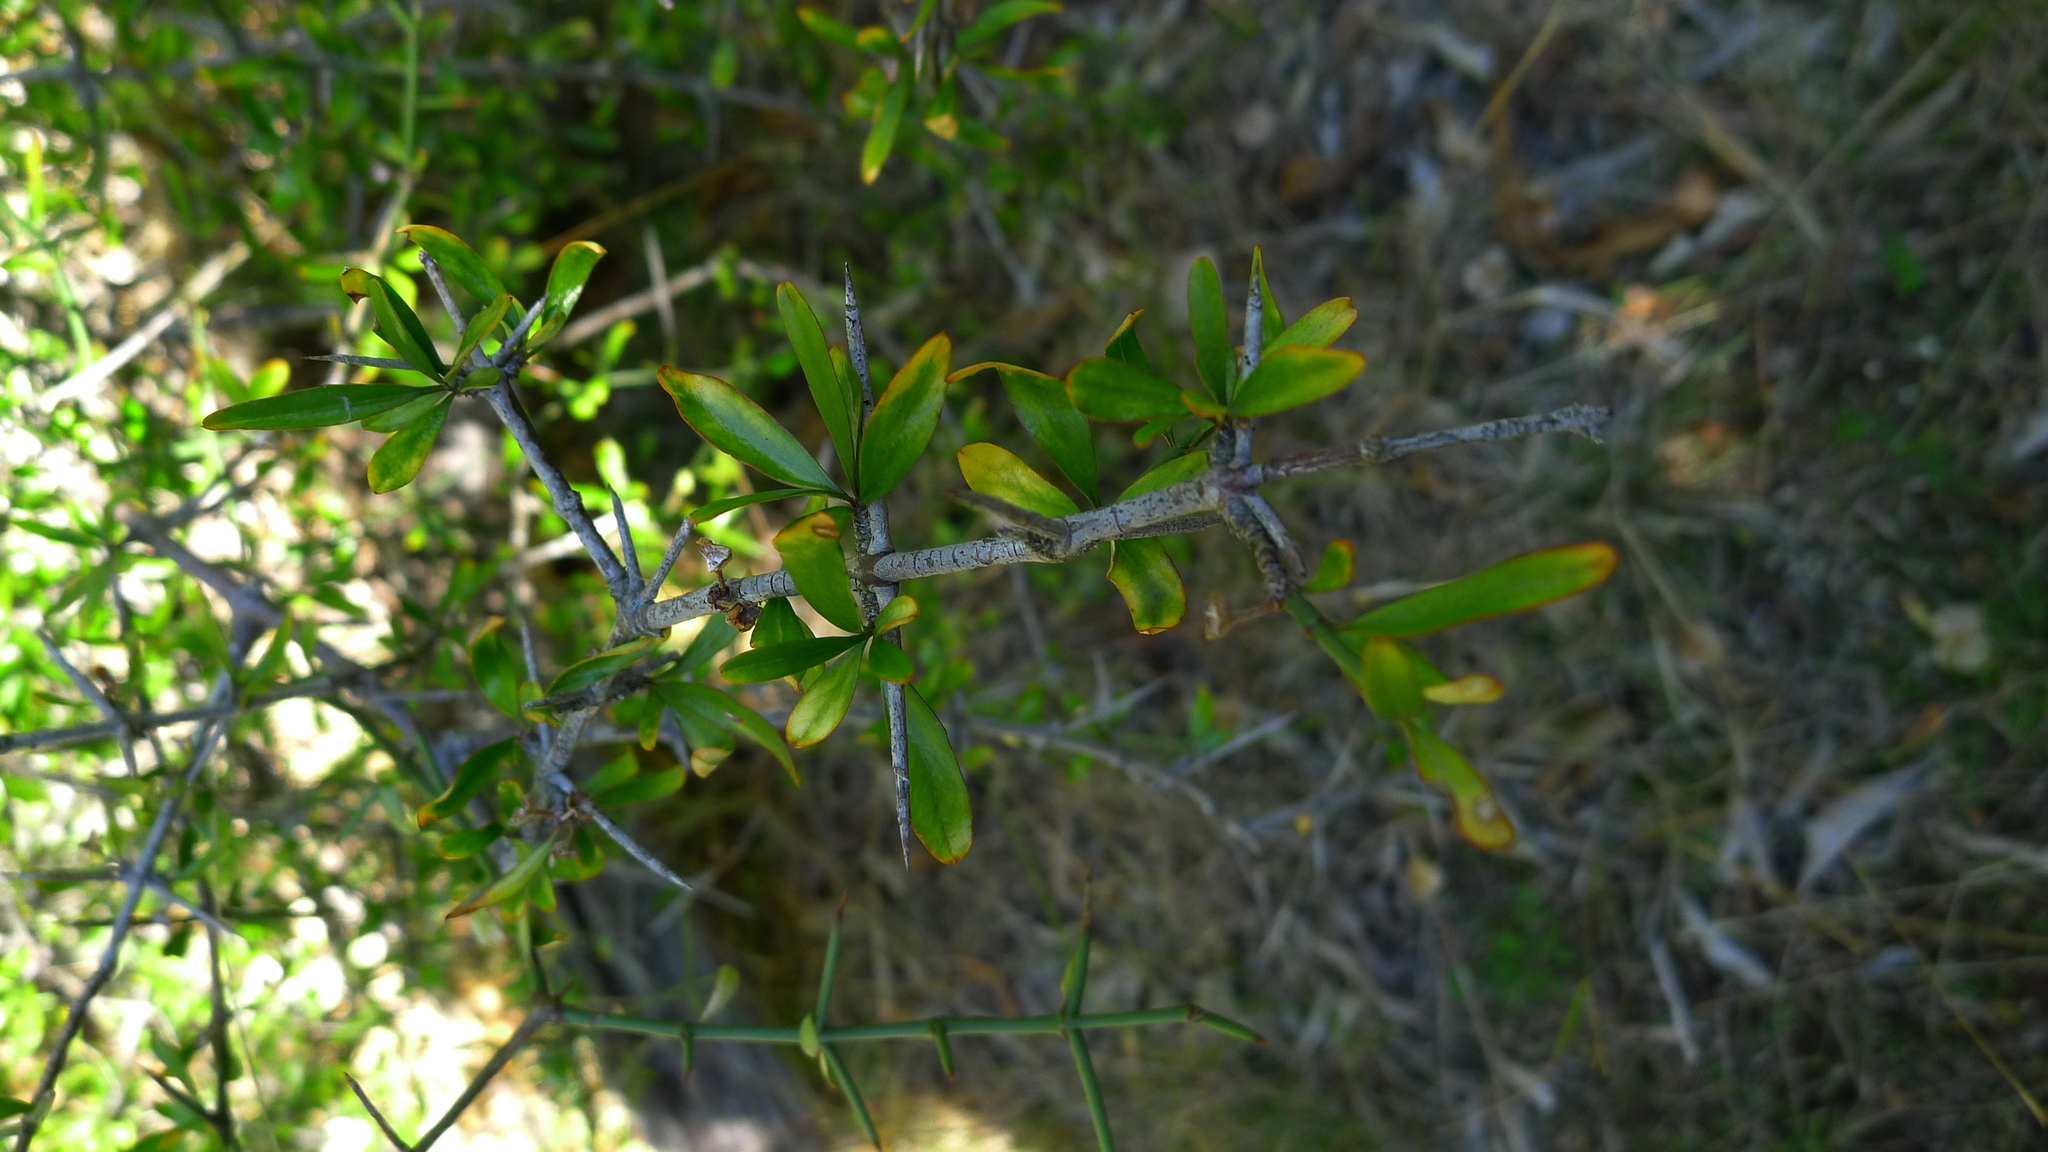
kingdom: Plantae
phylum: Tracheophyta
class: Magnoliopsida
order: Rosales
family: Rhamnaceae
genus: Discaria
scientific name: Discaria toumatou
